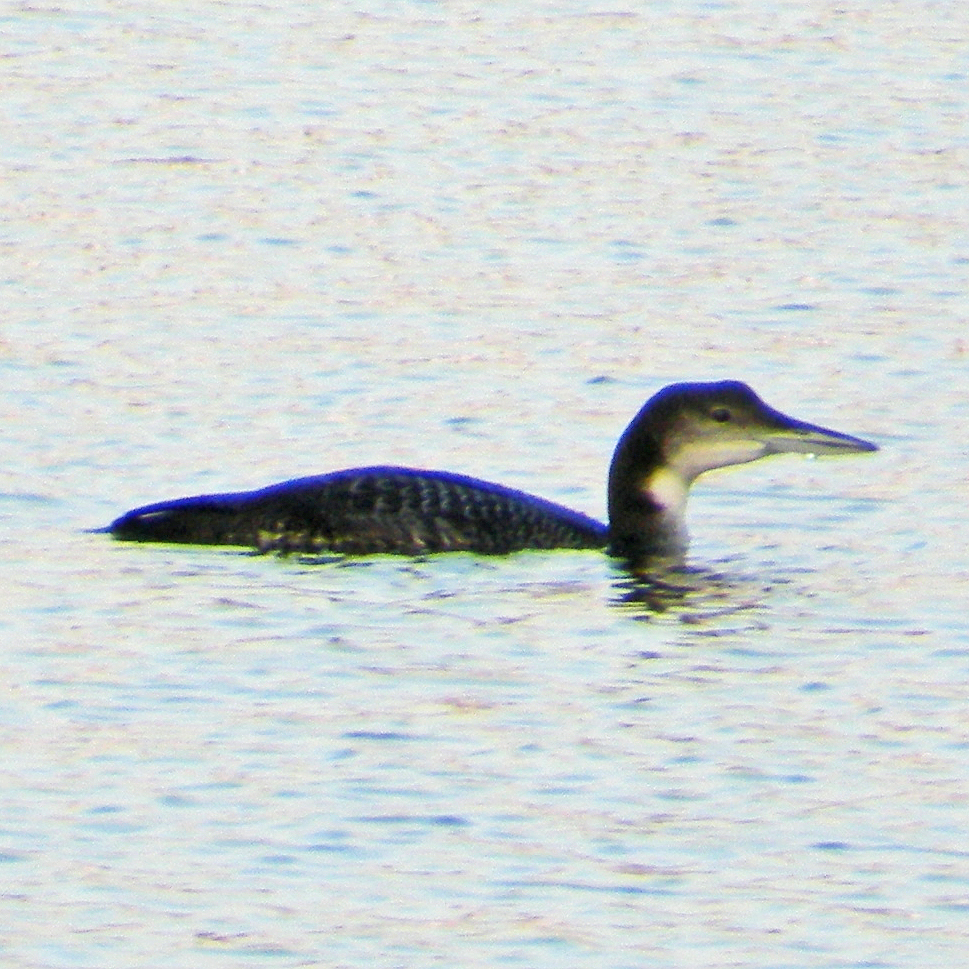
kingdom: Animalia
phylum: Chordata
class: Aves
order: Gaviiformes
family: Gaviidae
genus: Gavia
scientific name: Gavia immer
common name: Common loon
